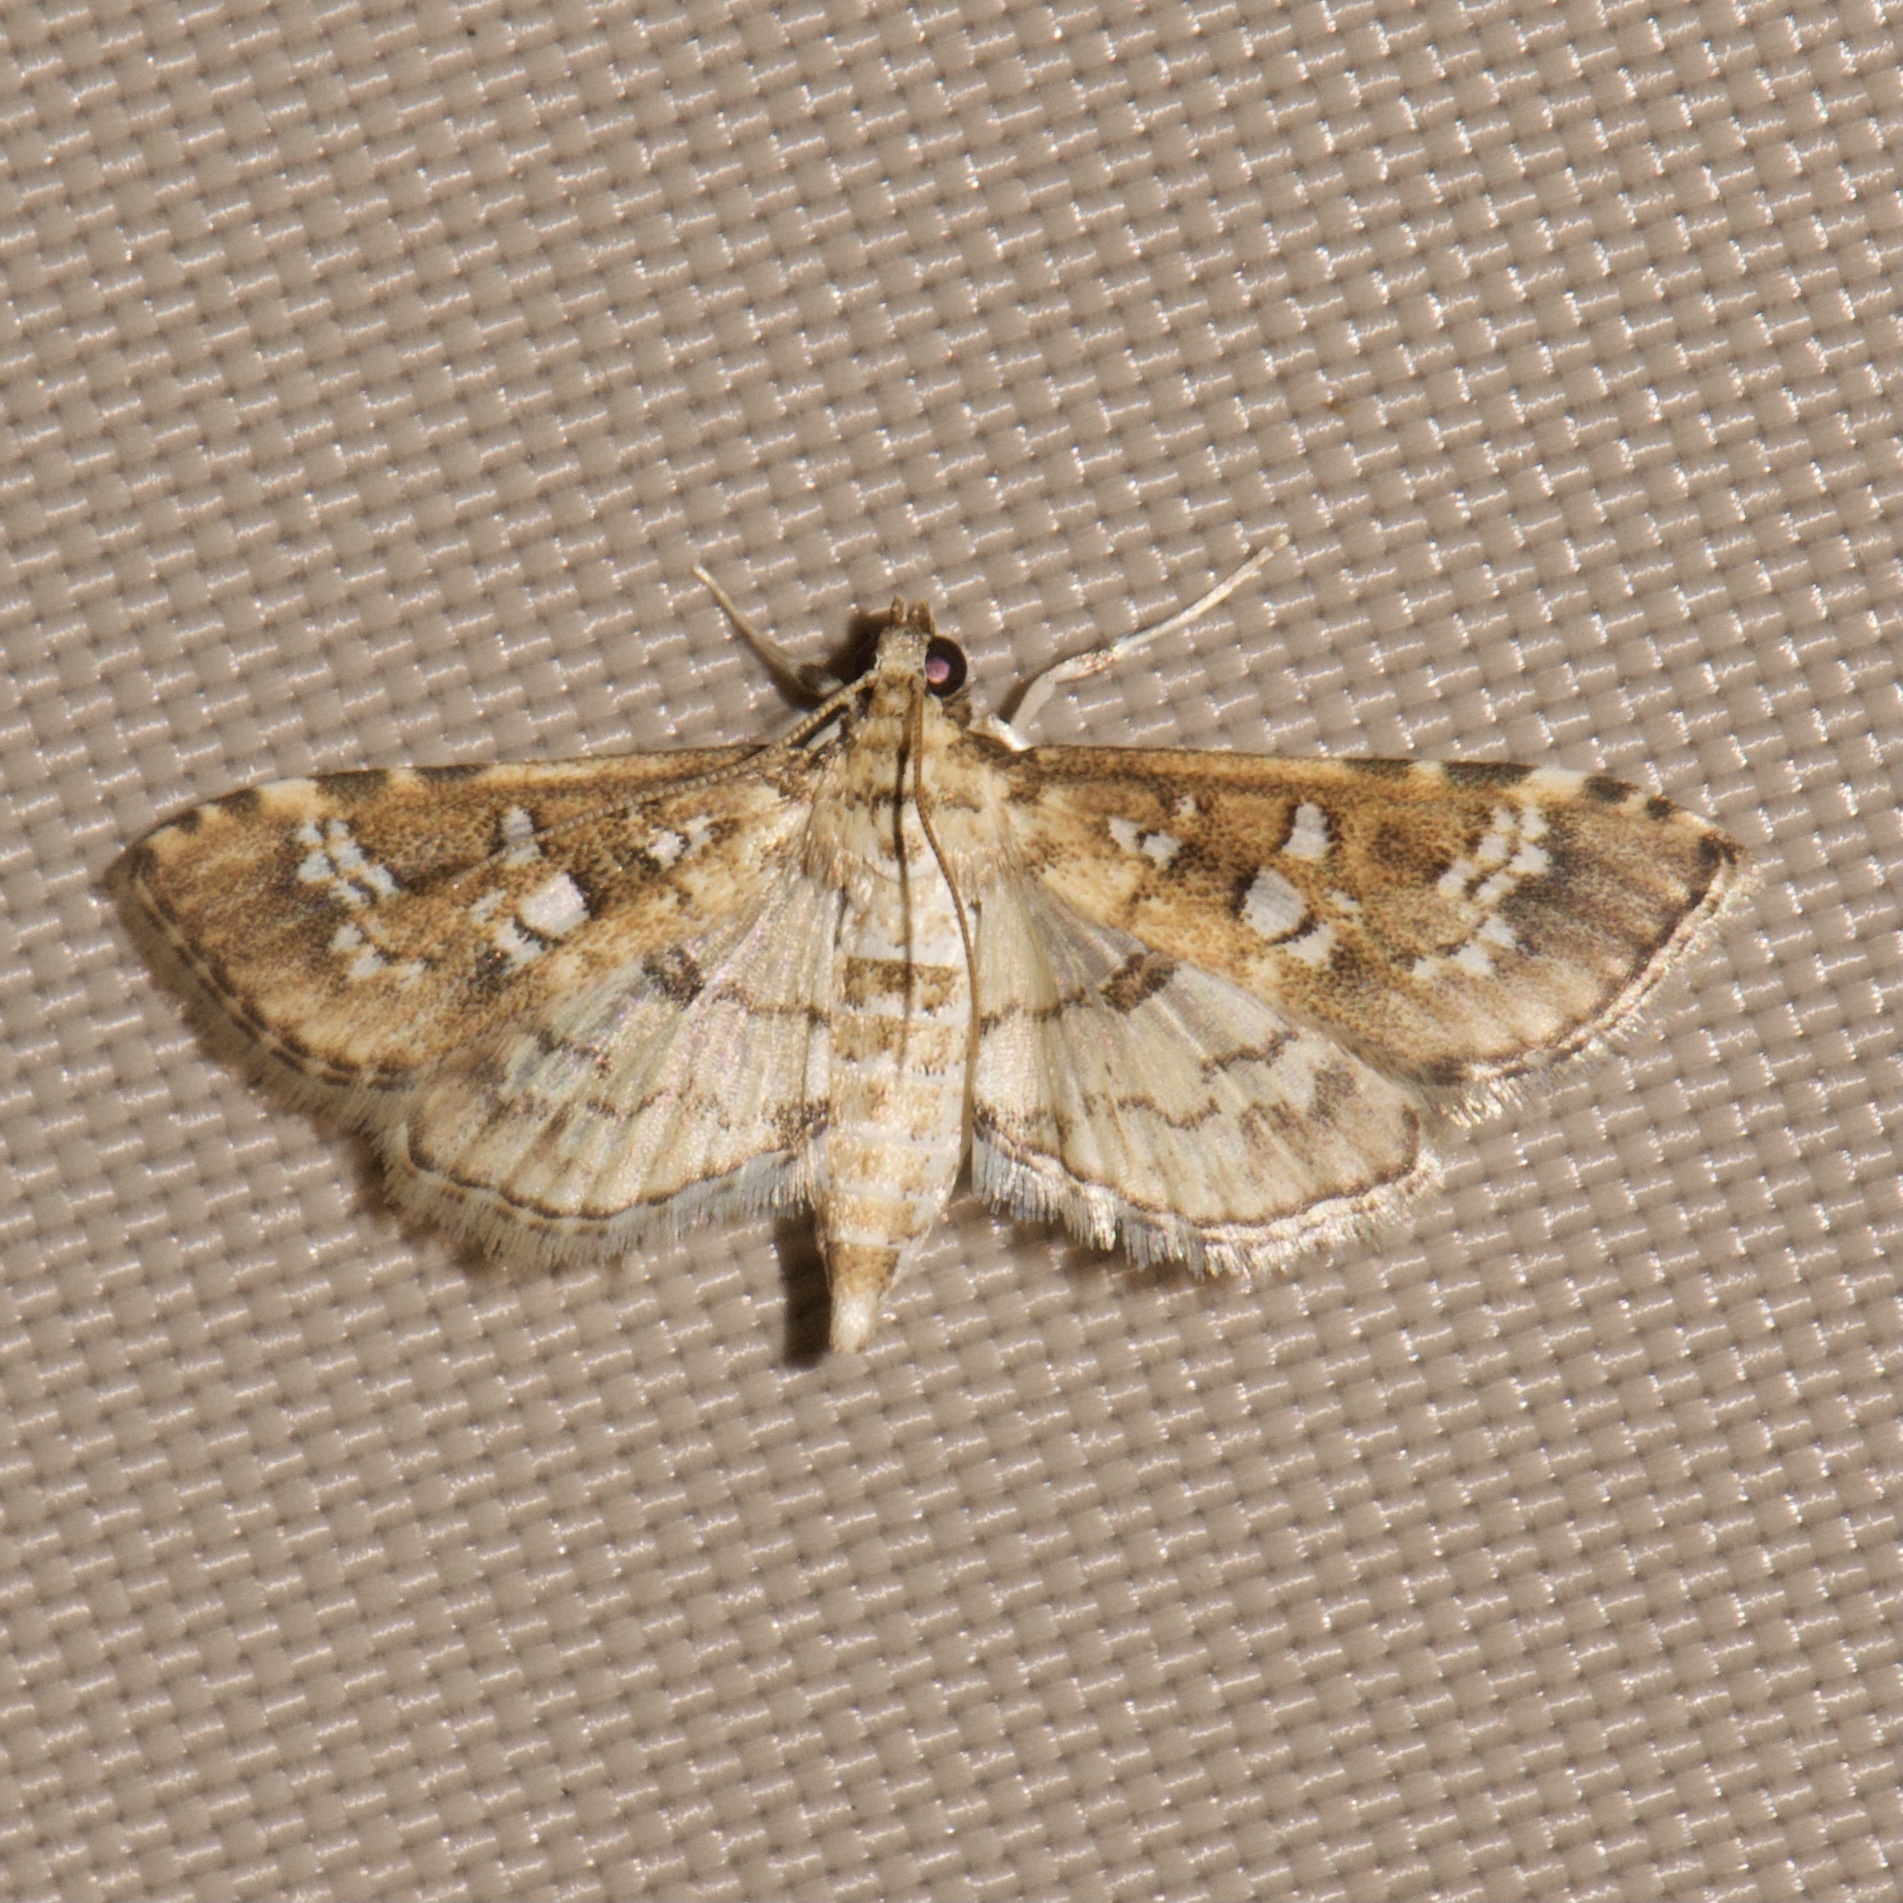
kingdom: Animalia
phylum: Arthropoda
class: Insecta
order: Lepidoptera
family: Crambidae
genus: Samea
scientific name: Samea multiplicalis
